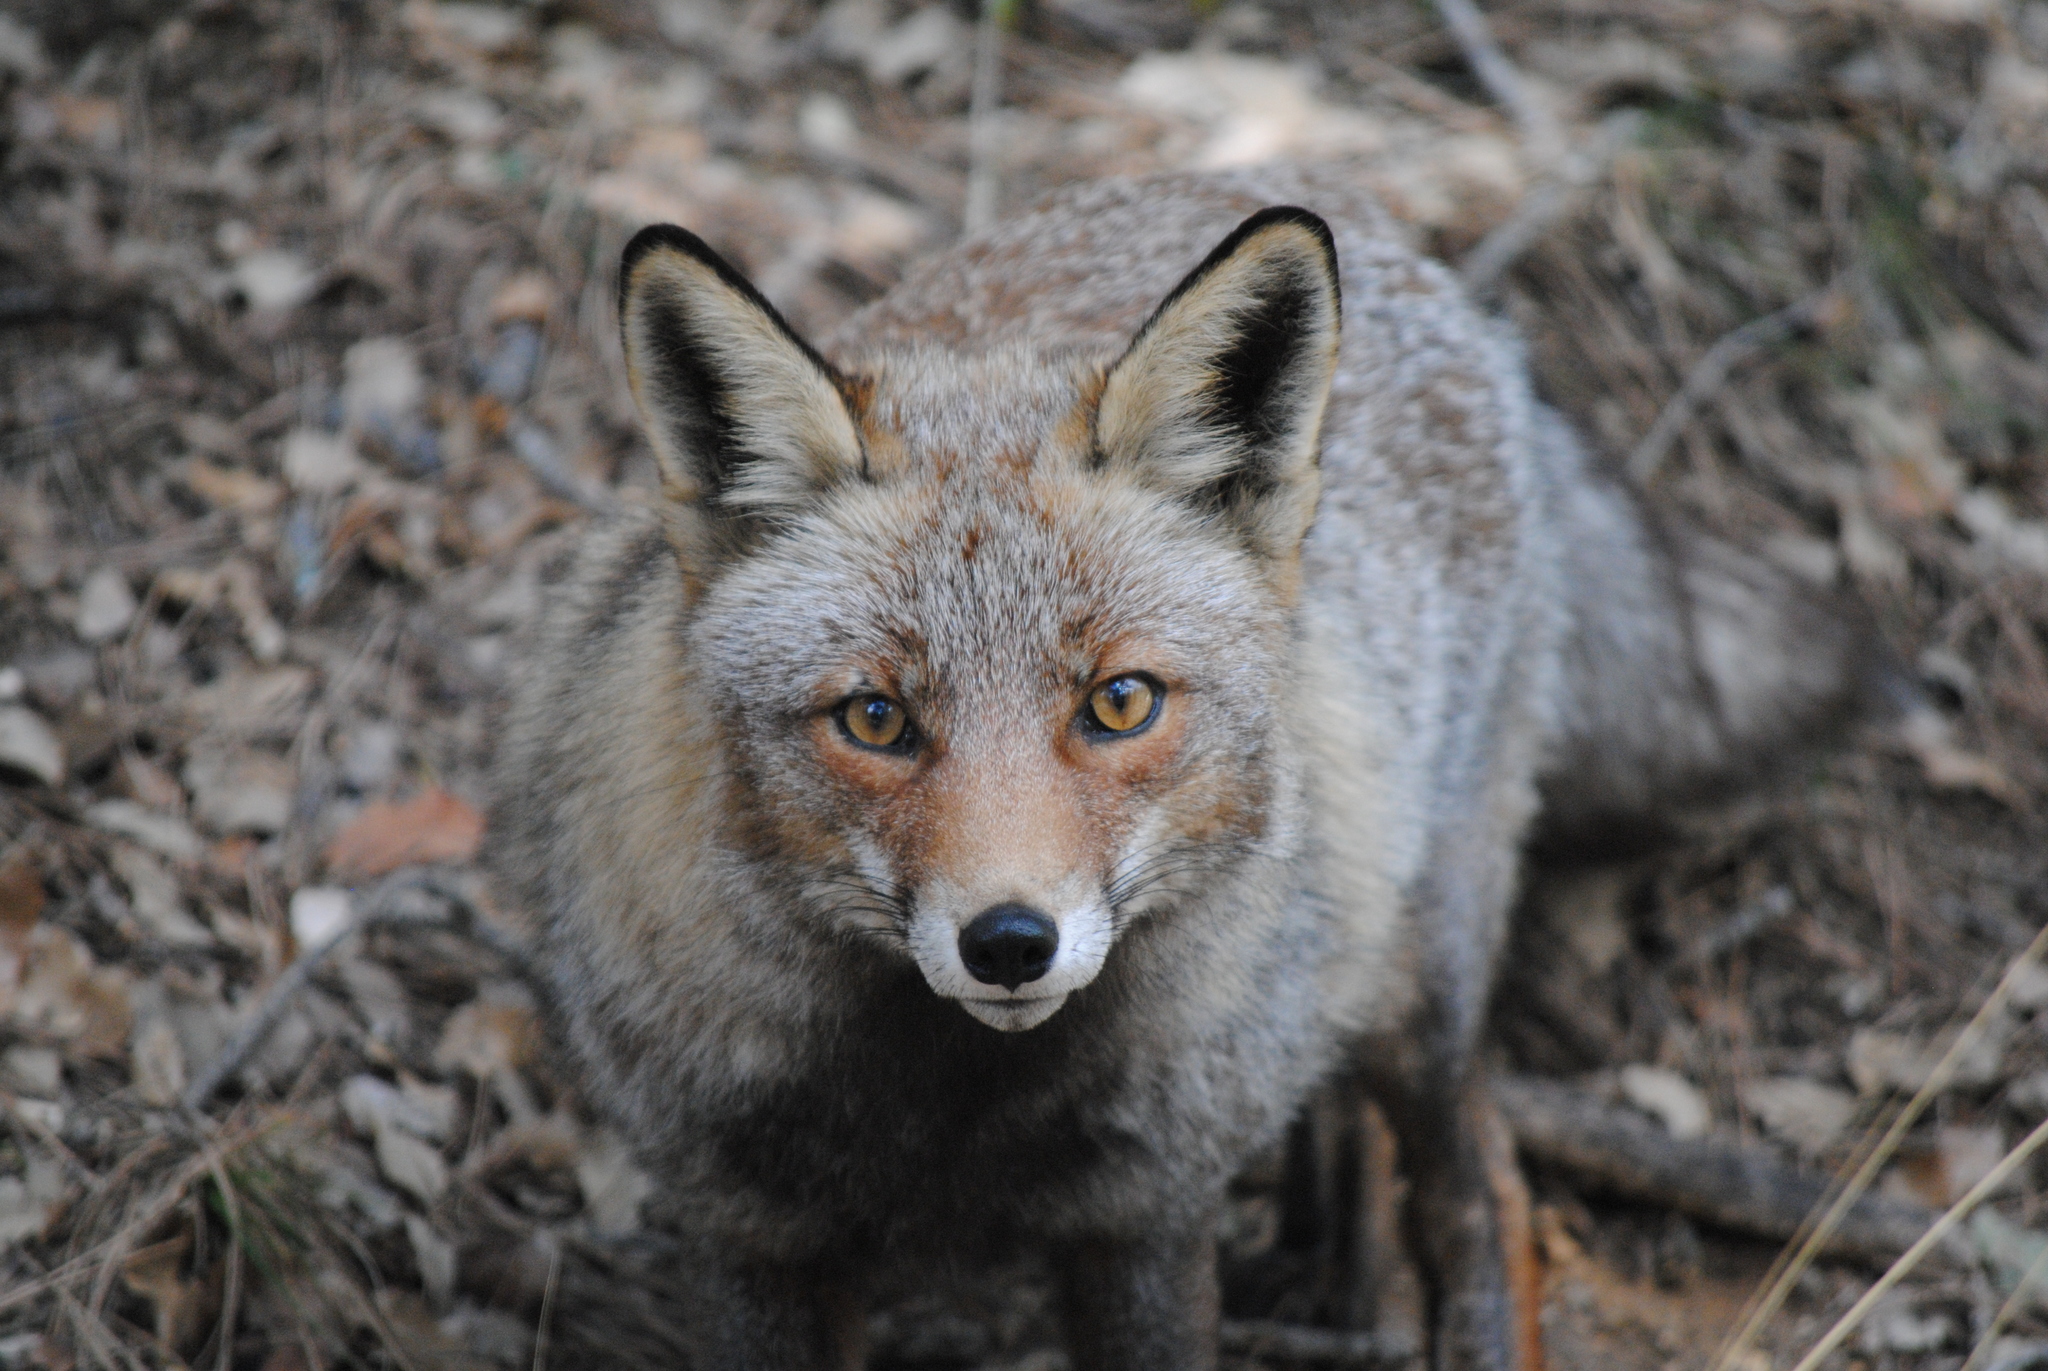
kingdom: Animalia
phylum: Chordata
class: Mammalia
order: Carnivora
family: Canidae
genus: Vulpes
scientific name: Vulpes vulpes
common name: Red fox
